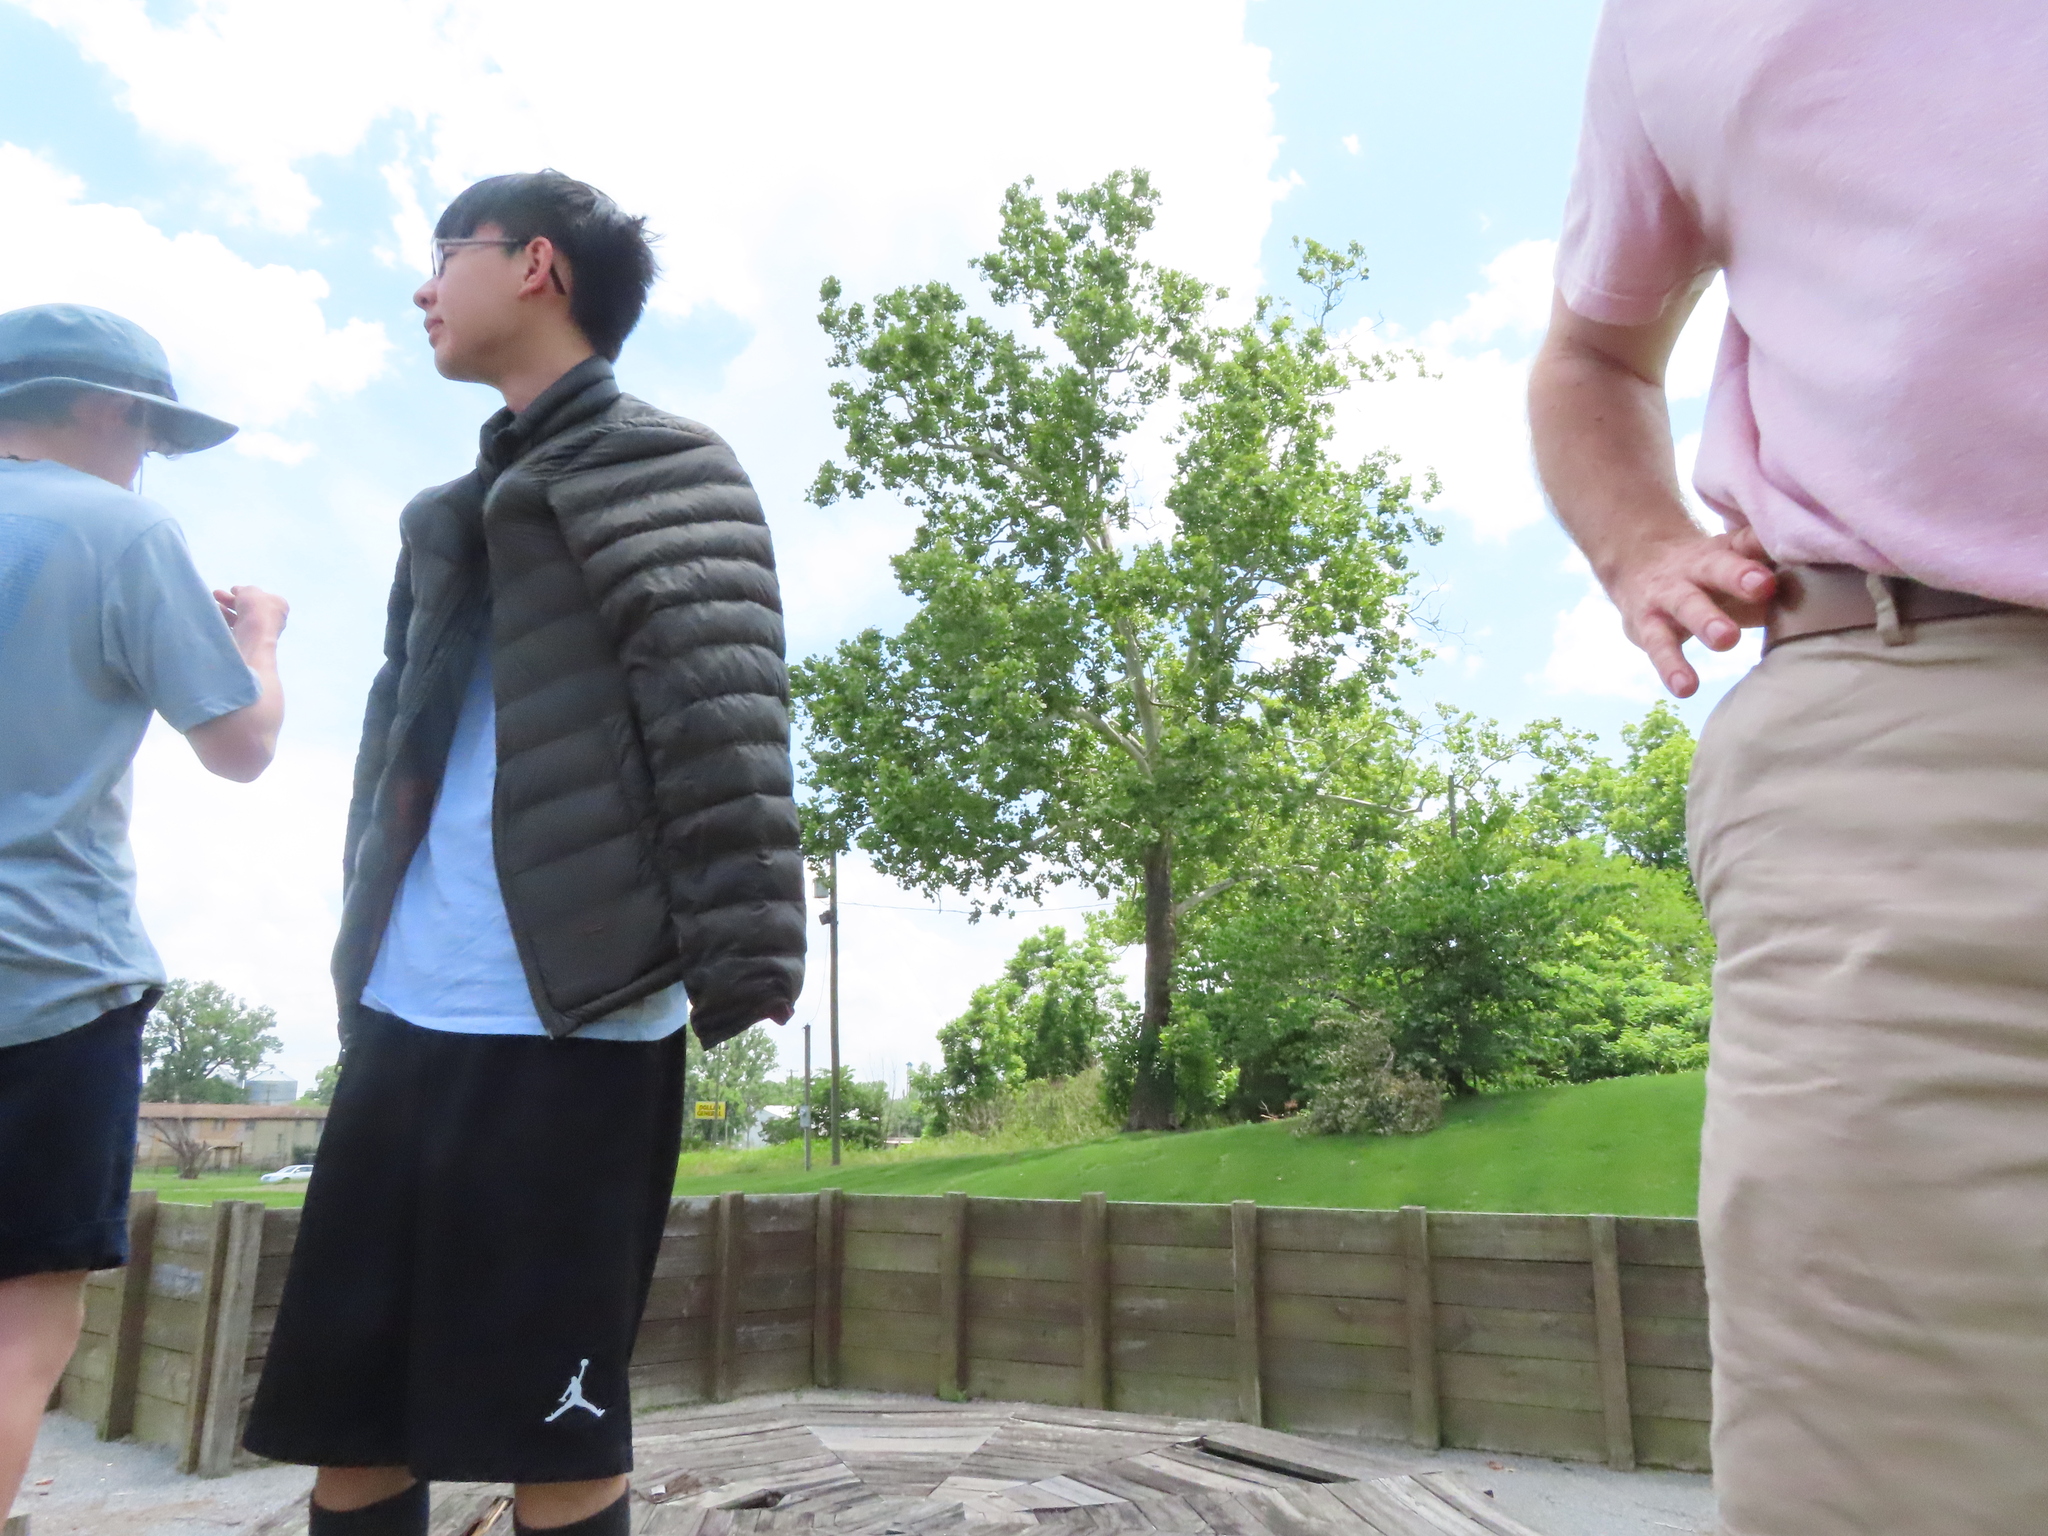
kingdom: Plantae
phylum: Tracheophyta
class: Magnoliopsida
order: Proteales
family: Platanaceae
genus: Platanus
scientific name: Platanus occidentalis
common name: American sycamore
